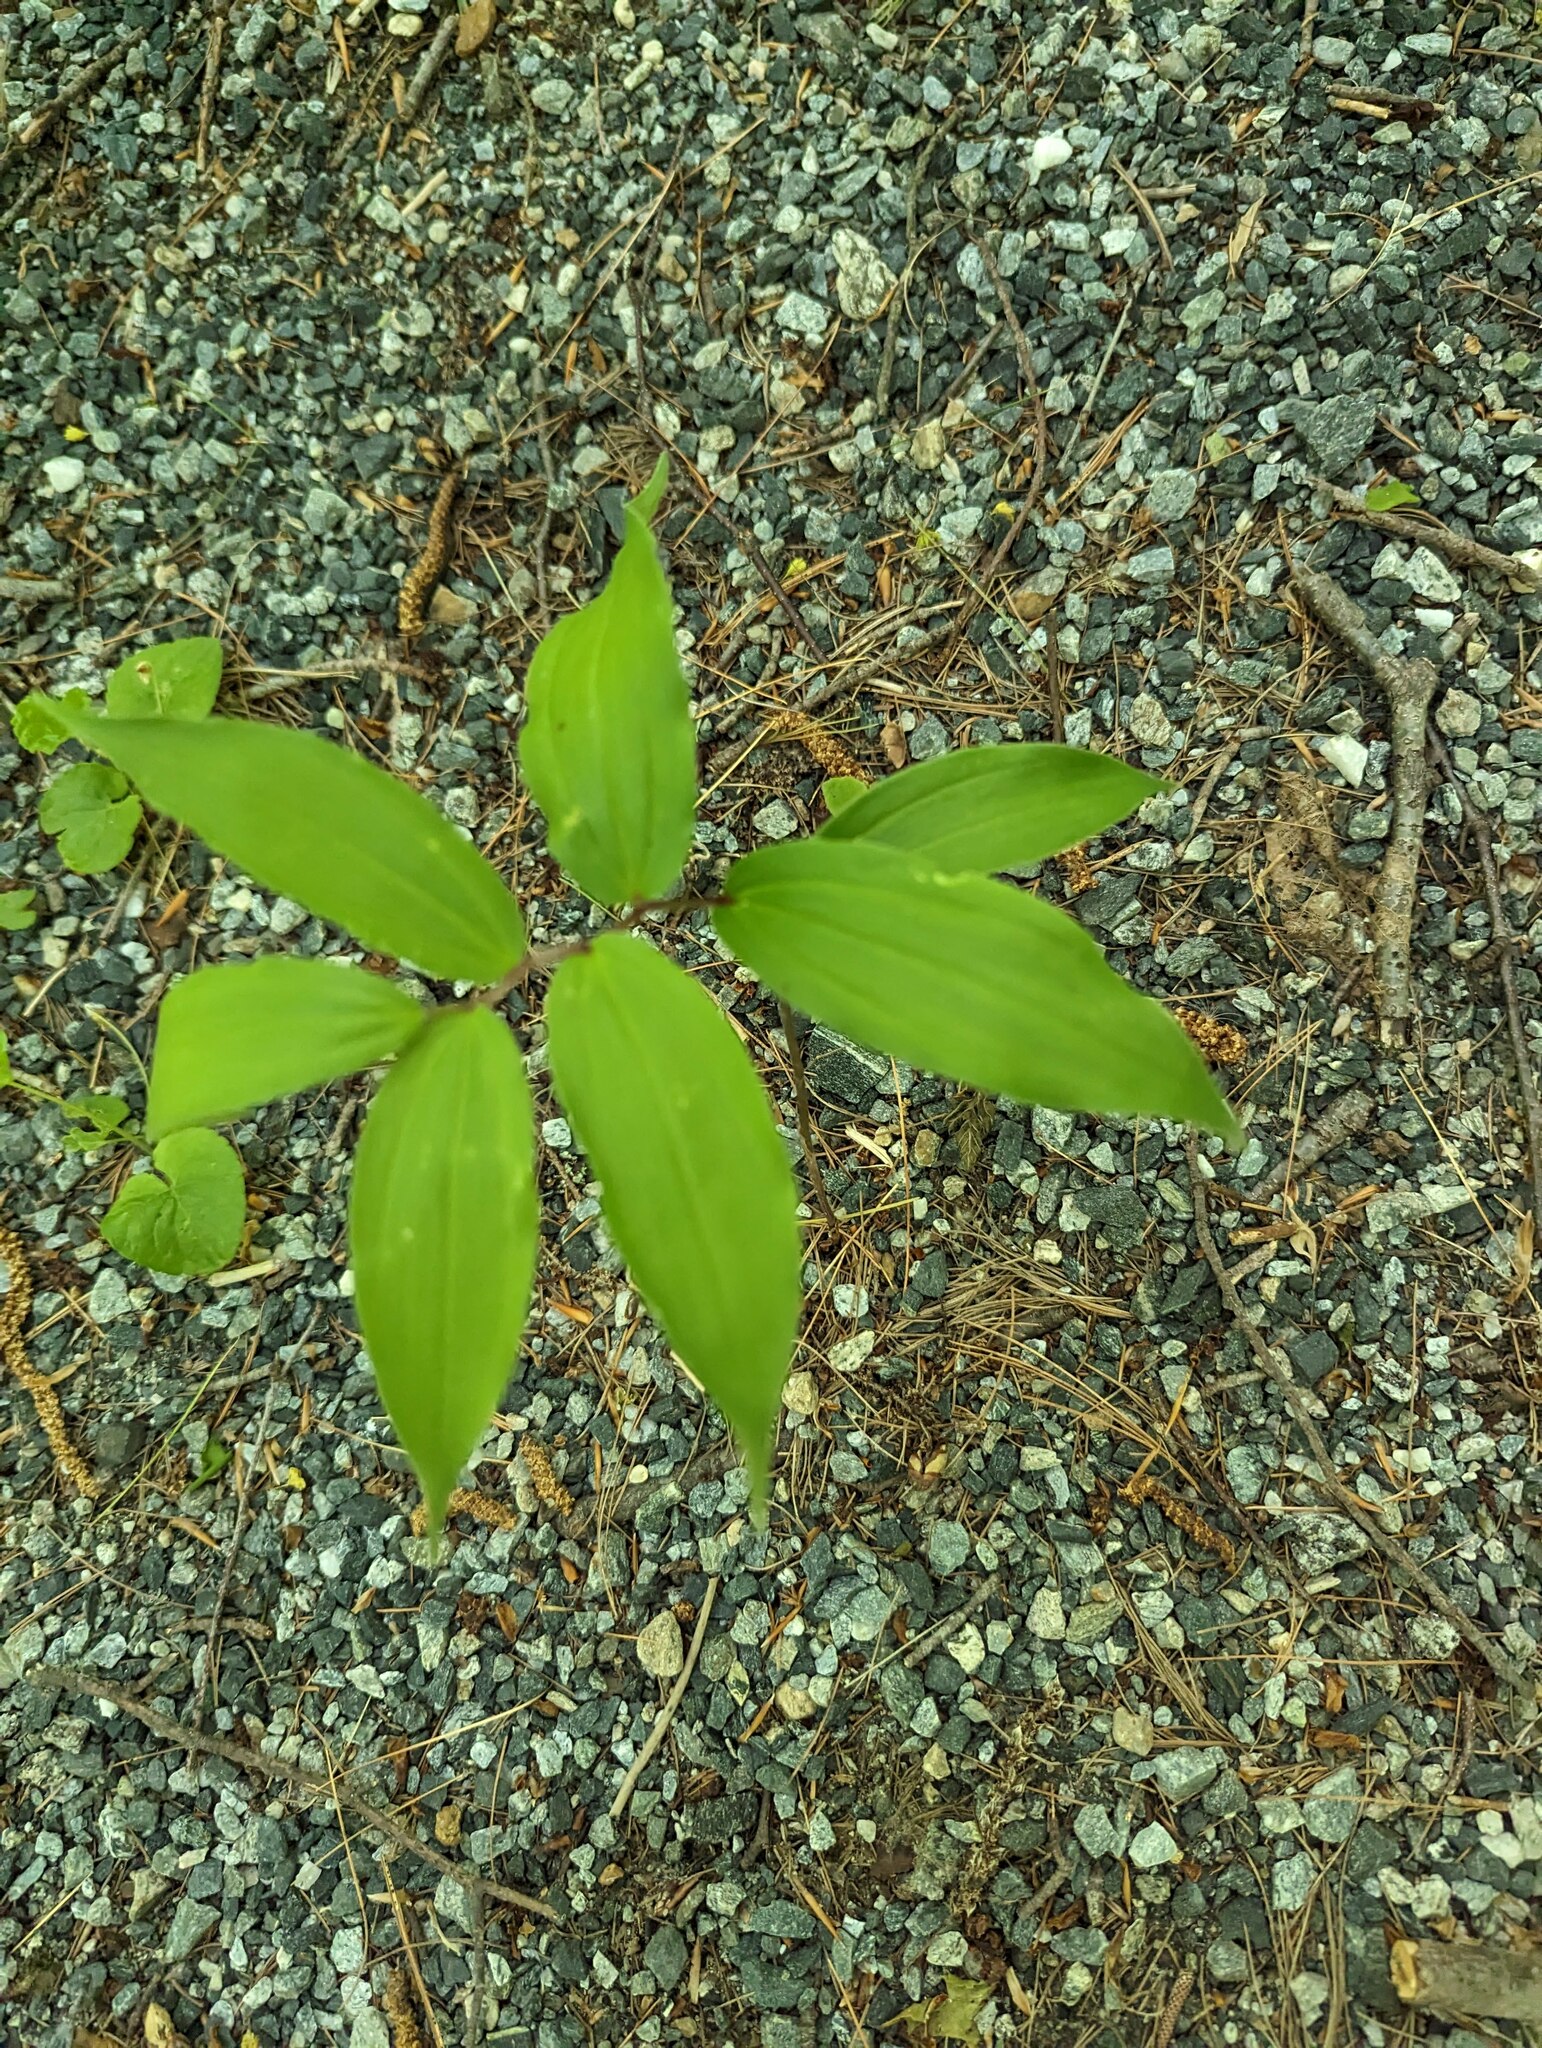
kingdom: Plantae
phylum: Tracheophyta
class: Liliopsida
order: Asparagales
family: Asparagaceae
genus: Maianthemum
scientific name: Maianthemum racemosum
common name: False spikenard
